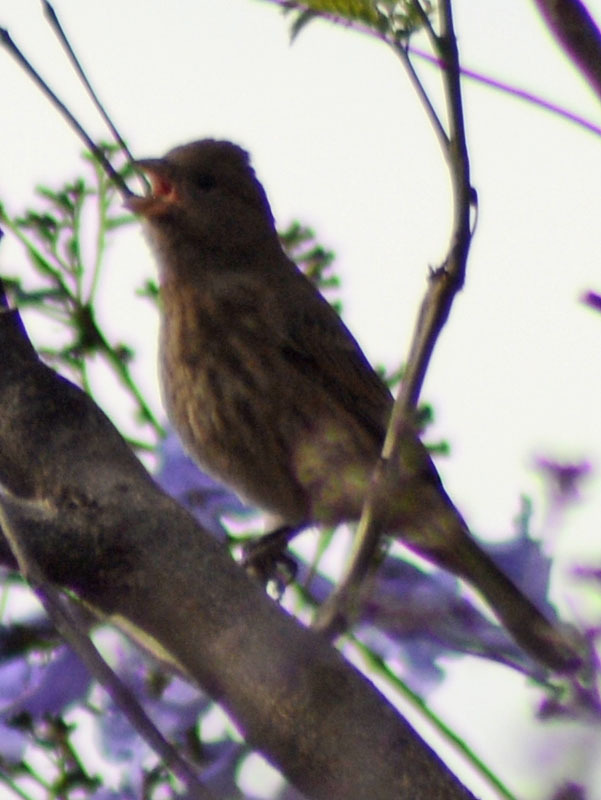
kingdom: Animalia
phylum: Chordata
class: Aves
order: Passeriformes
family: Fringillidae
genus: Haemorhous
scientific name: Haemorhous mexicanus
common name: House finch
